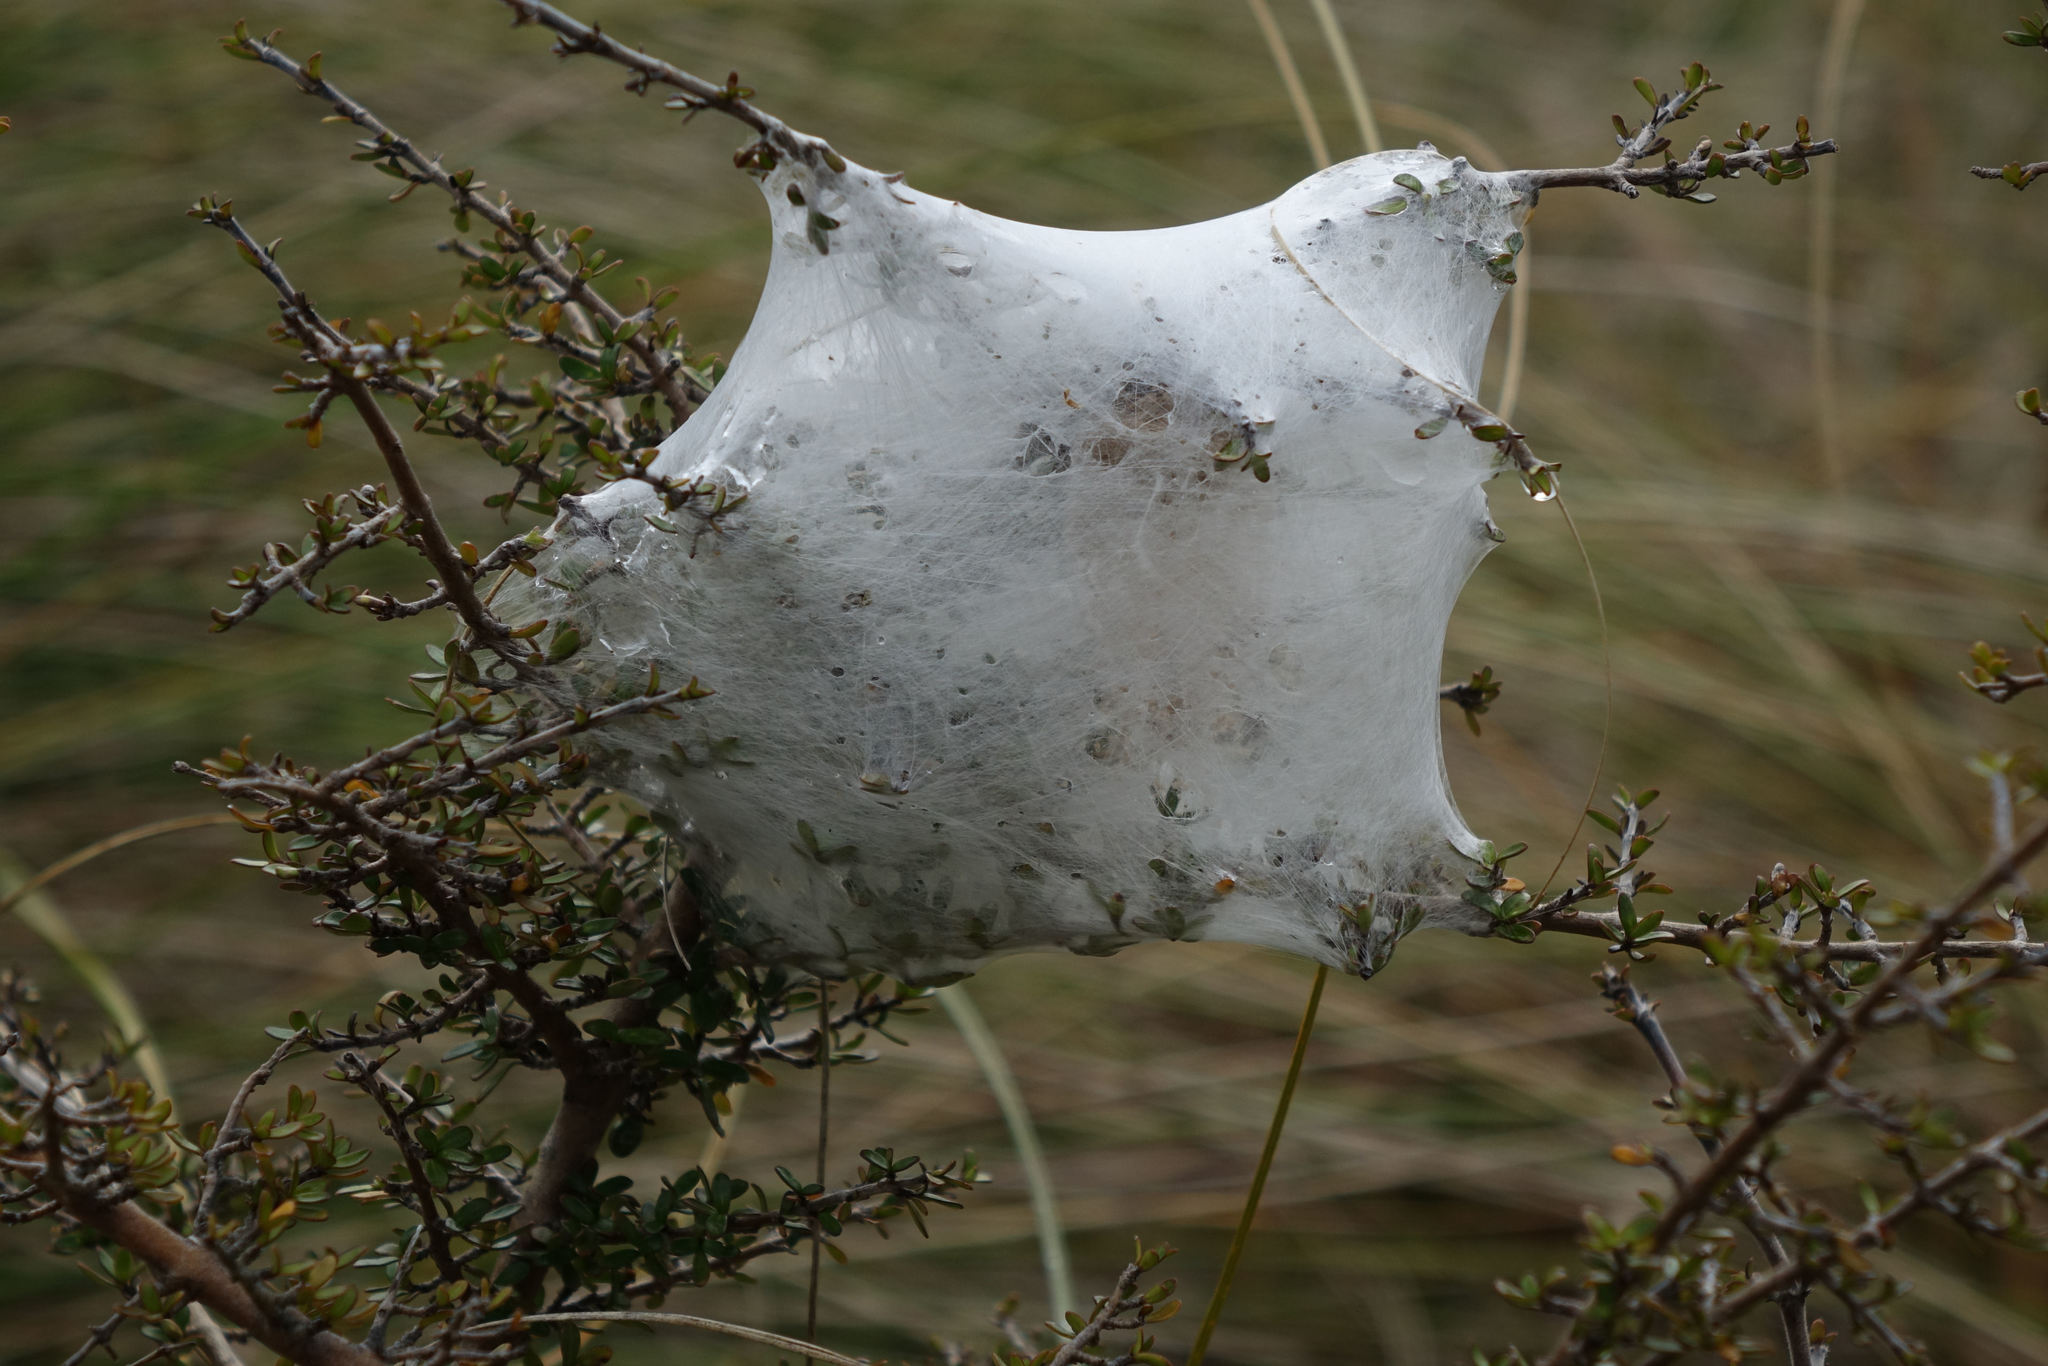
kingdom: Animalia
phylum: Arthropoda
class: Arachnida
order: Araneae
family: Pisauridae
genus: Dolomedes
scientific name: Dolomedes minor
